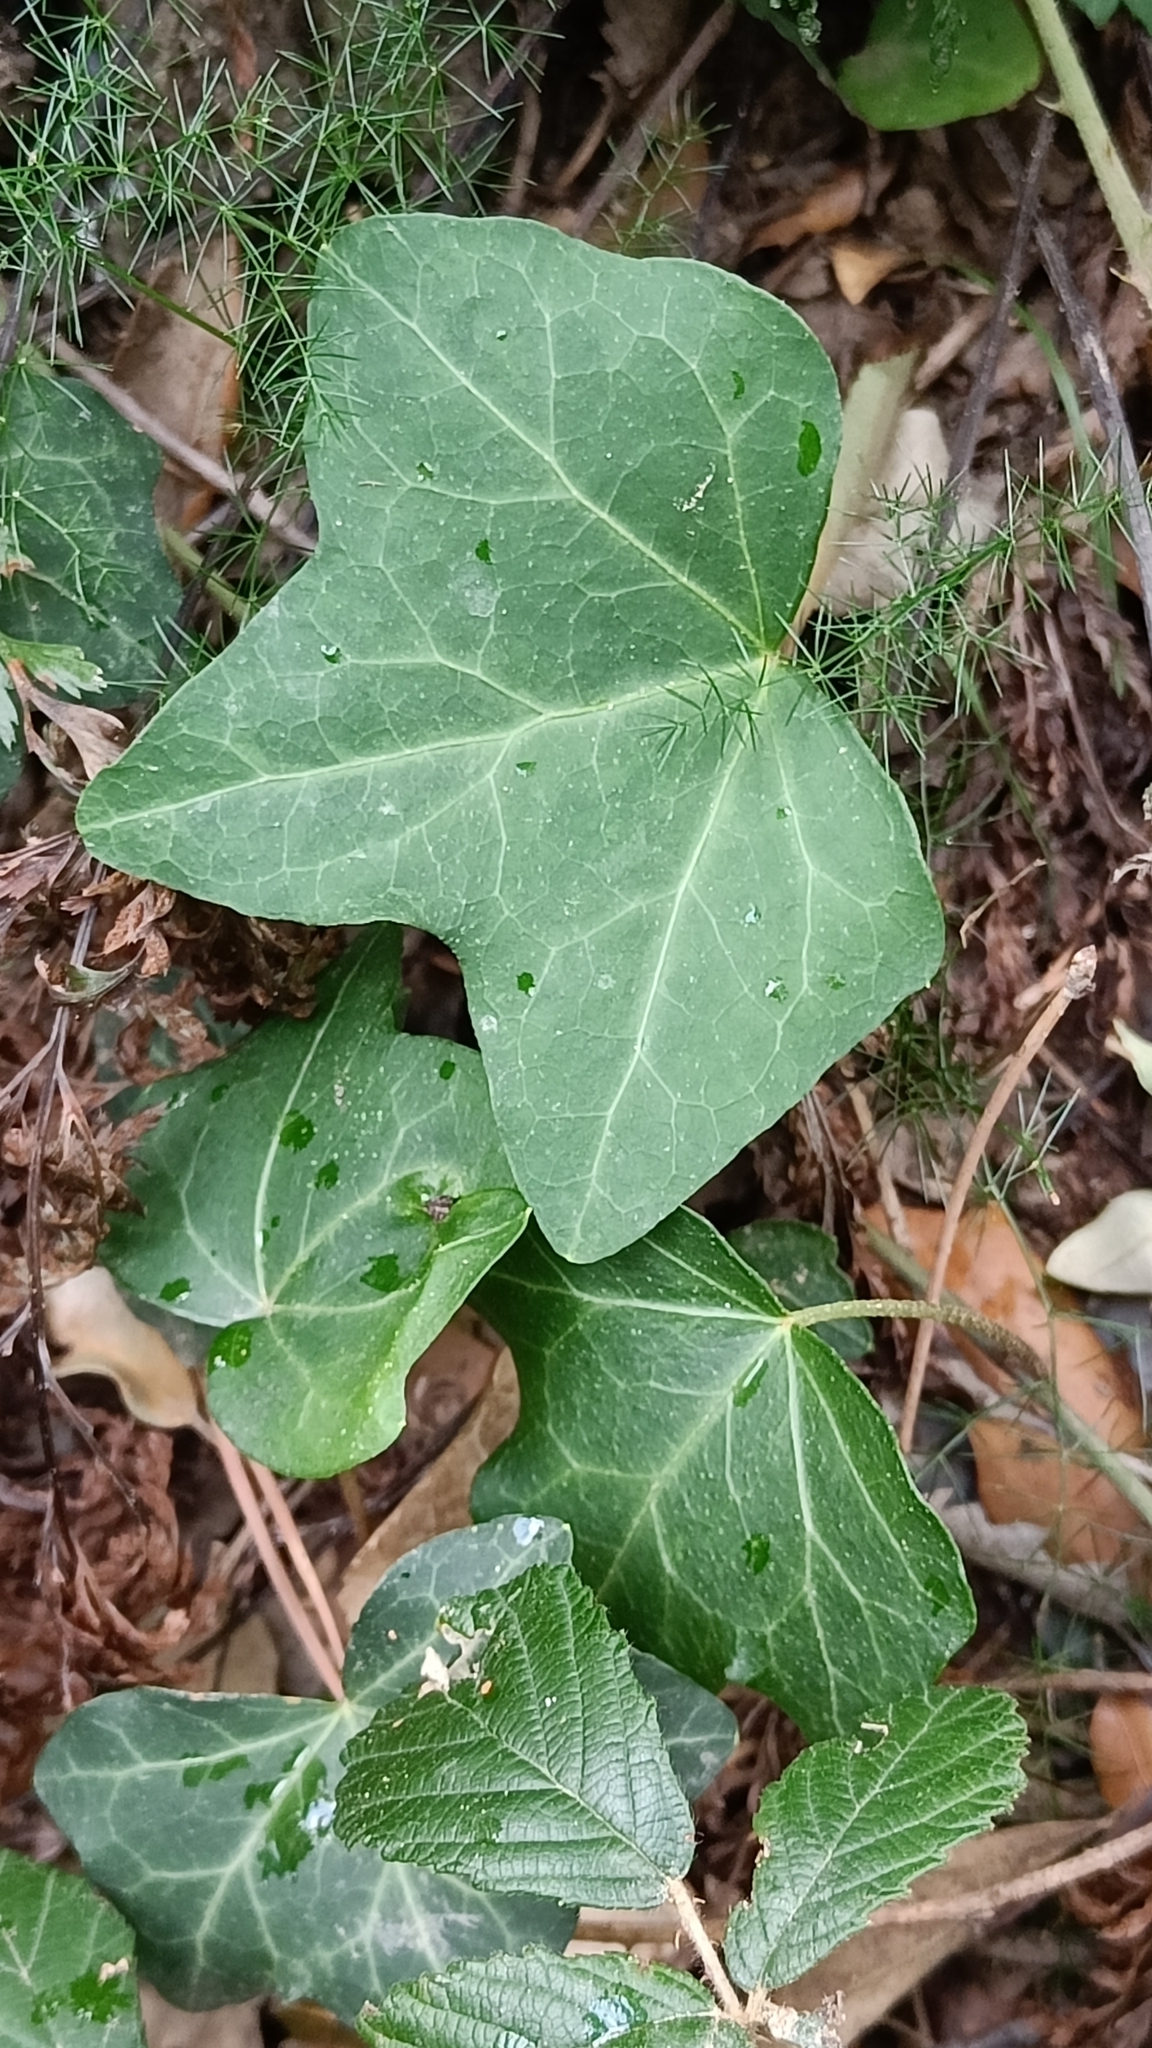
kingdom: Plantae
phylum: Tracheophyta
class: Magnoliopsida
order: Apiales
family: Araliaceae
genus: Hedera
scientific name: Hedera helix
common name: Ivy
